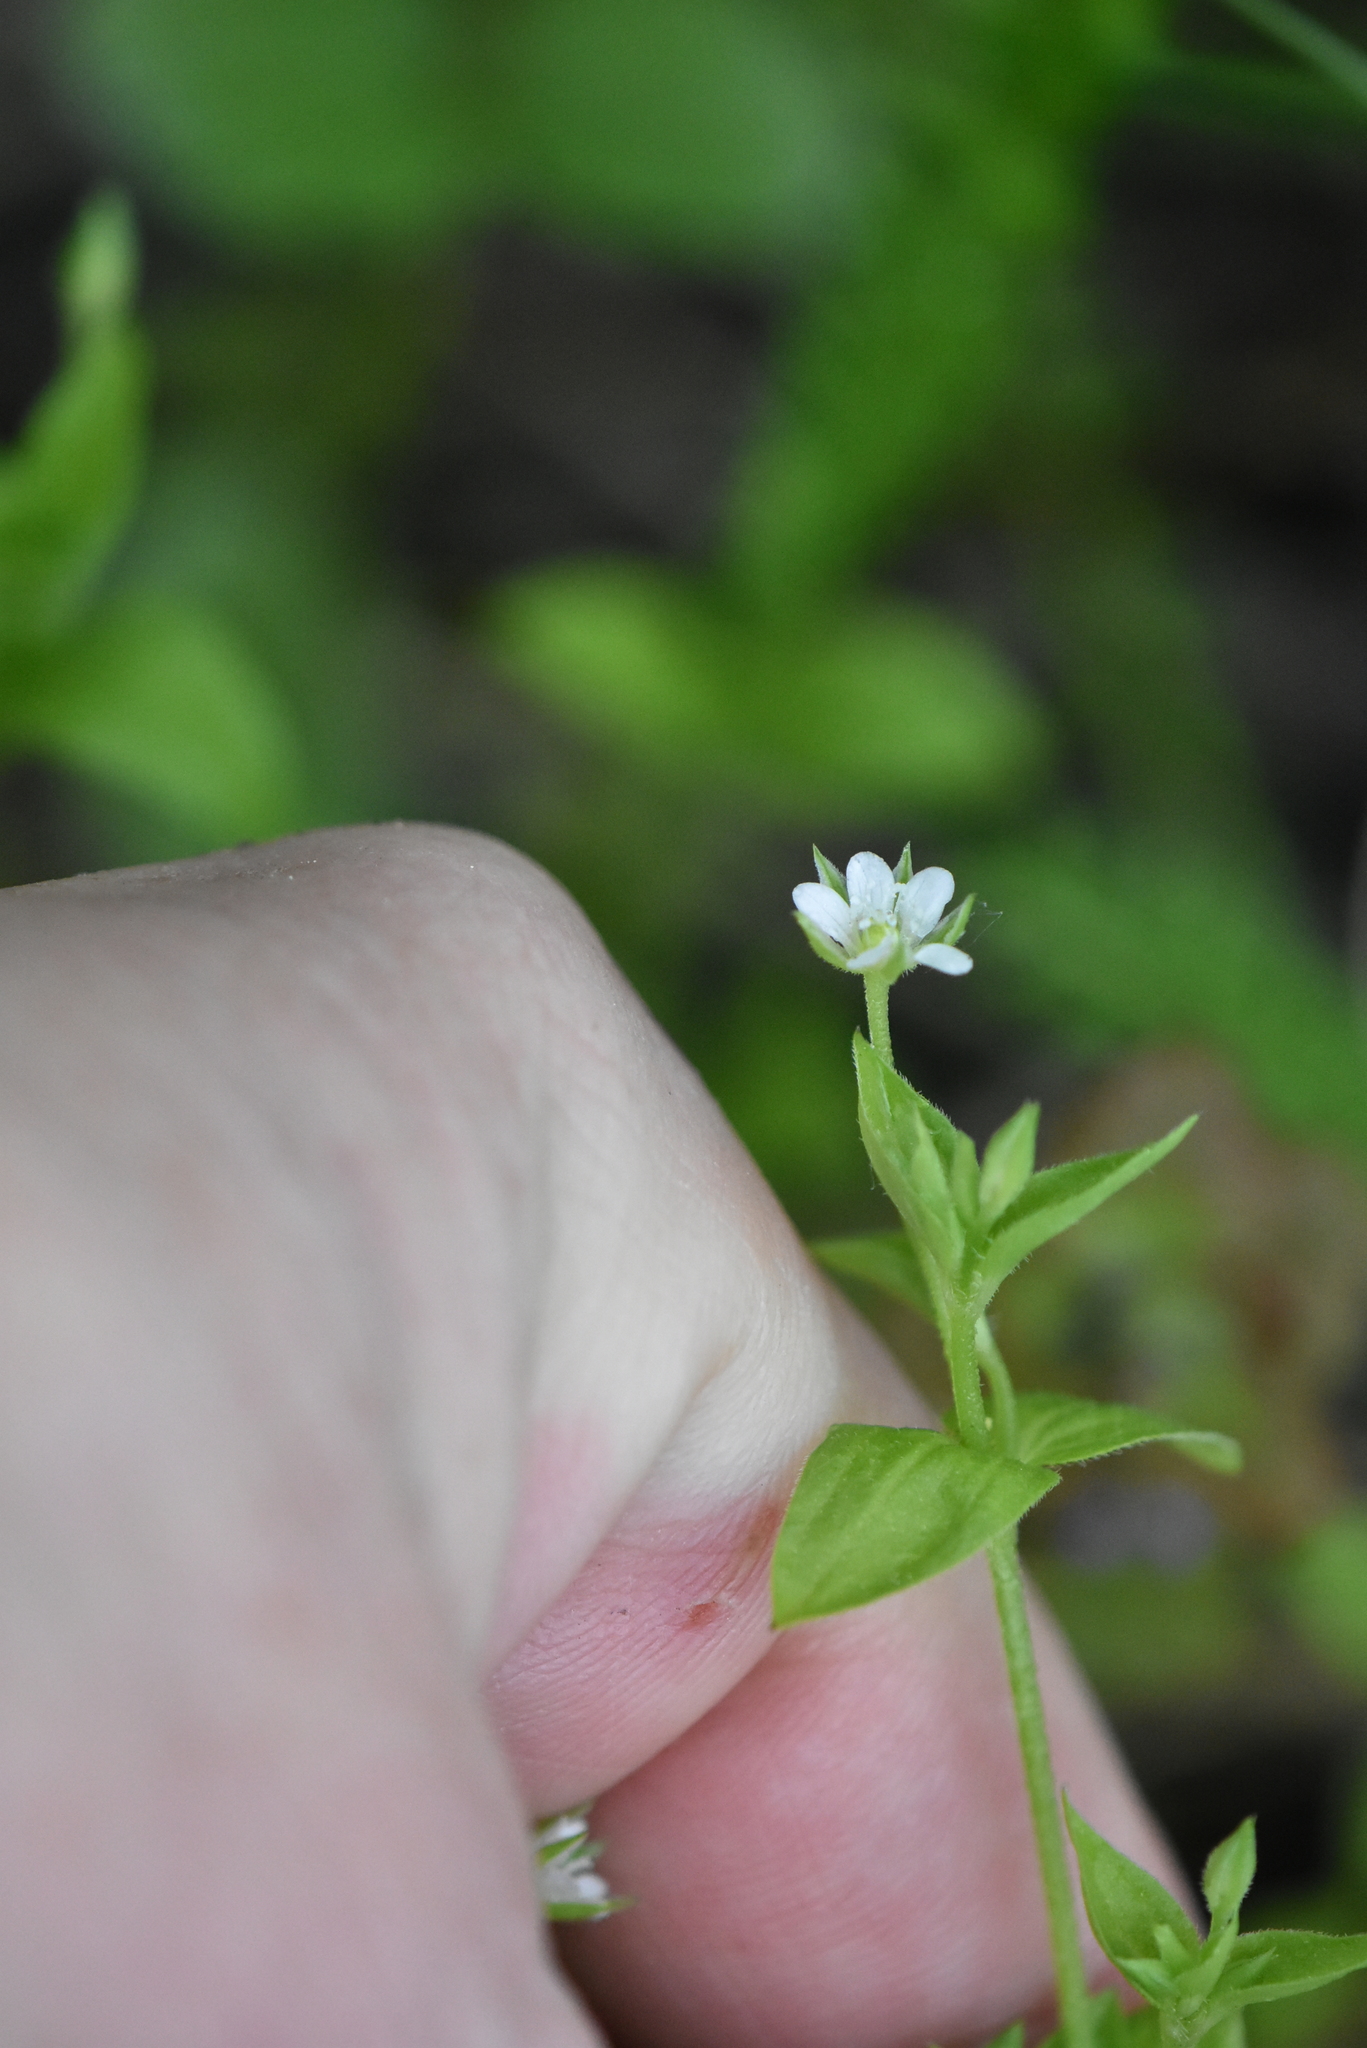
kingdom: Plantae
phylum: Tracheophyta
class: Magnoliopsida
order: Caryophyllales
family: Caryophyllaceae
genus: Moehringia
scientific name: Moehringia trinervia
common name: Three-nerved sandwort
